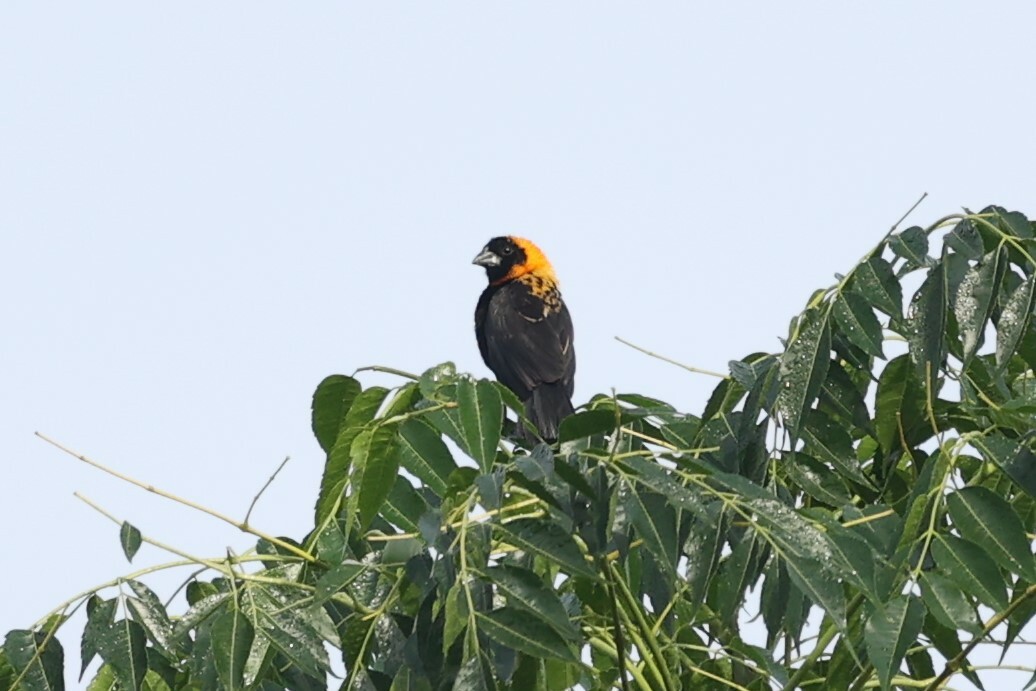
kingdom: Animalia
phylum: Chordata
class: Aves
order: Passeriformes
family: Ploceidae
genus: Euplectes
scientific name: Euplectes gierowii
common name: Black bishop
